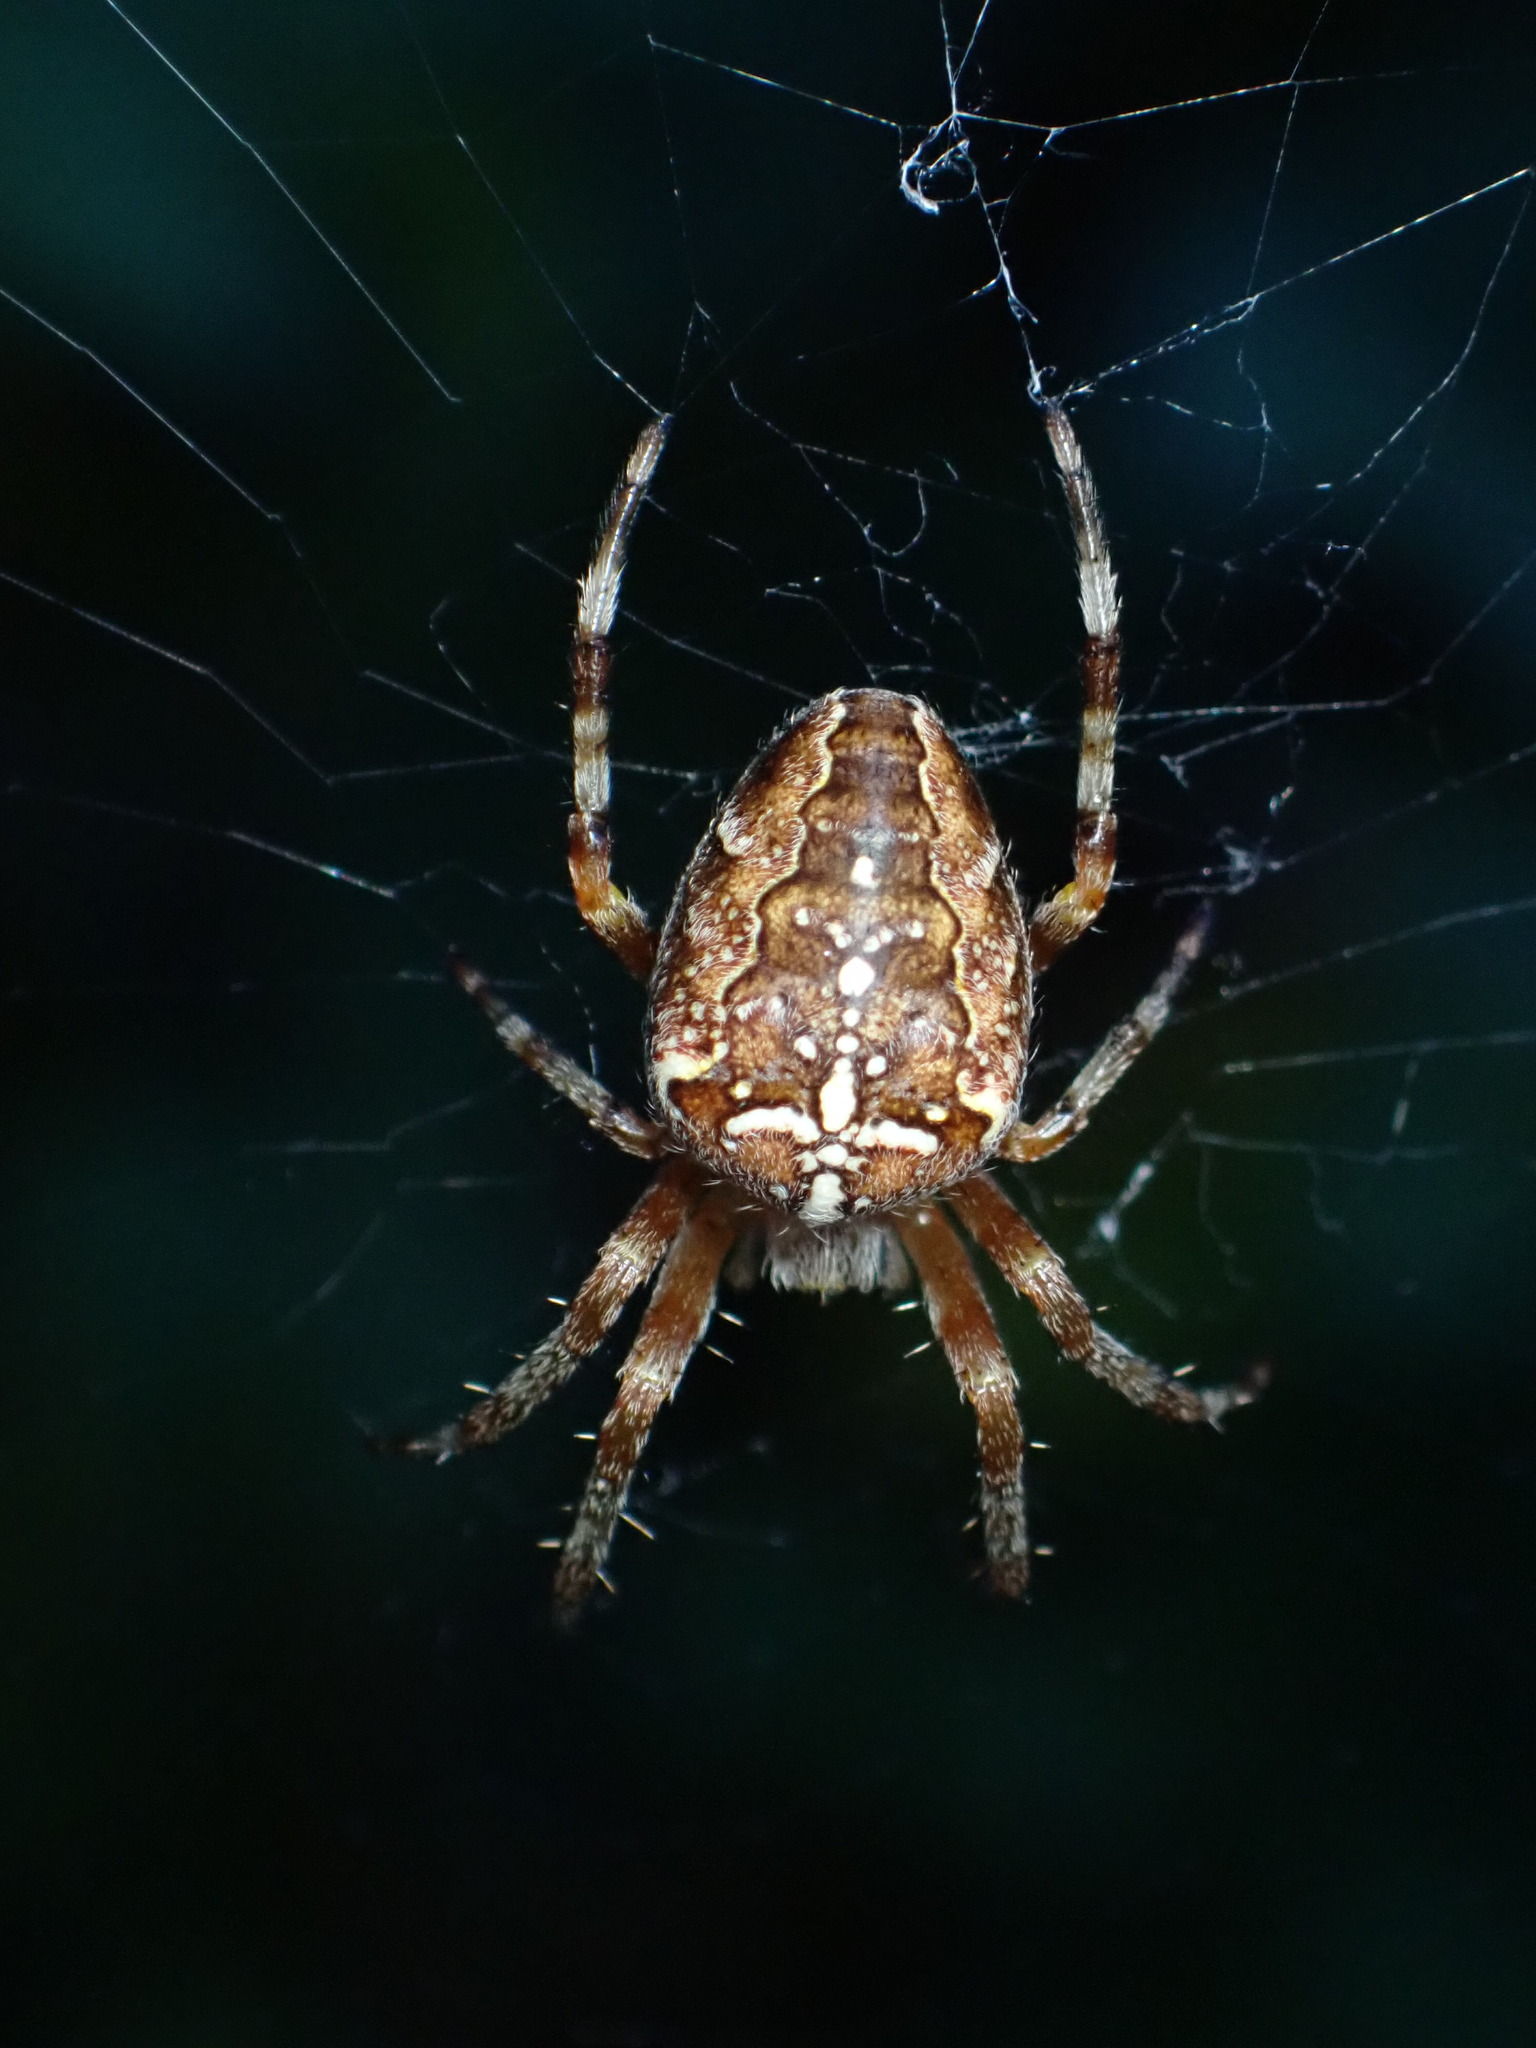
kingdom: Animalia
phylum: Arthropoda
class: Arachnida
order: Araneae
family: Araneidae
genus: Araneus
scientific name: Araneus diadematus
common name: Cross orbweaver
